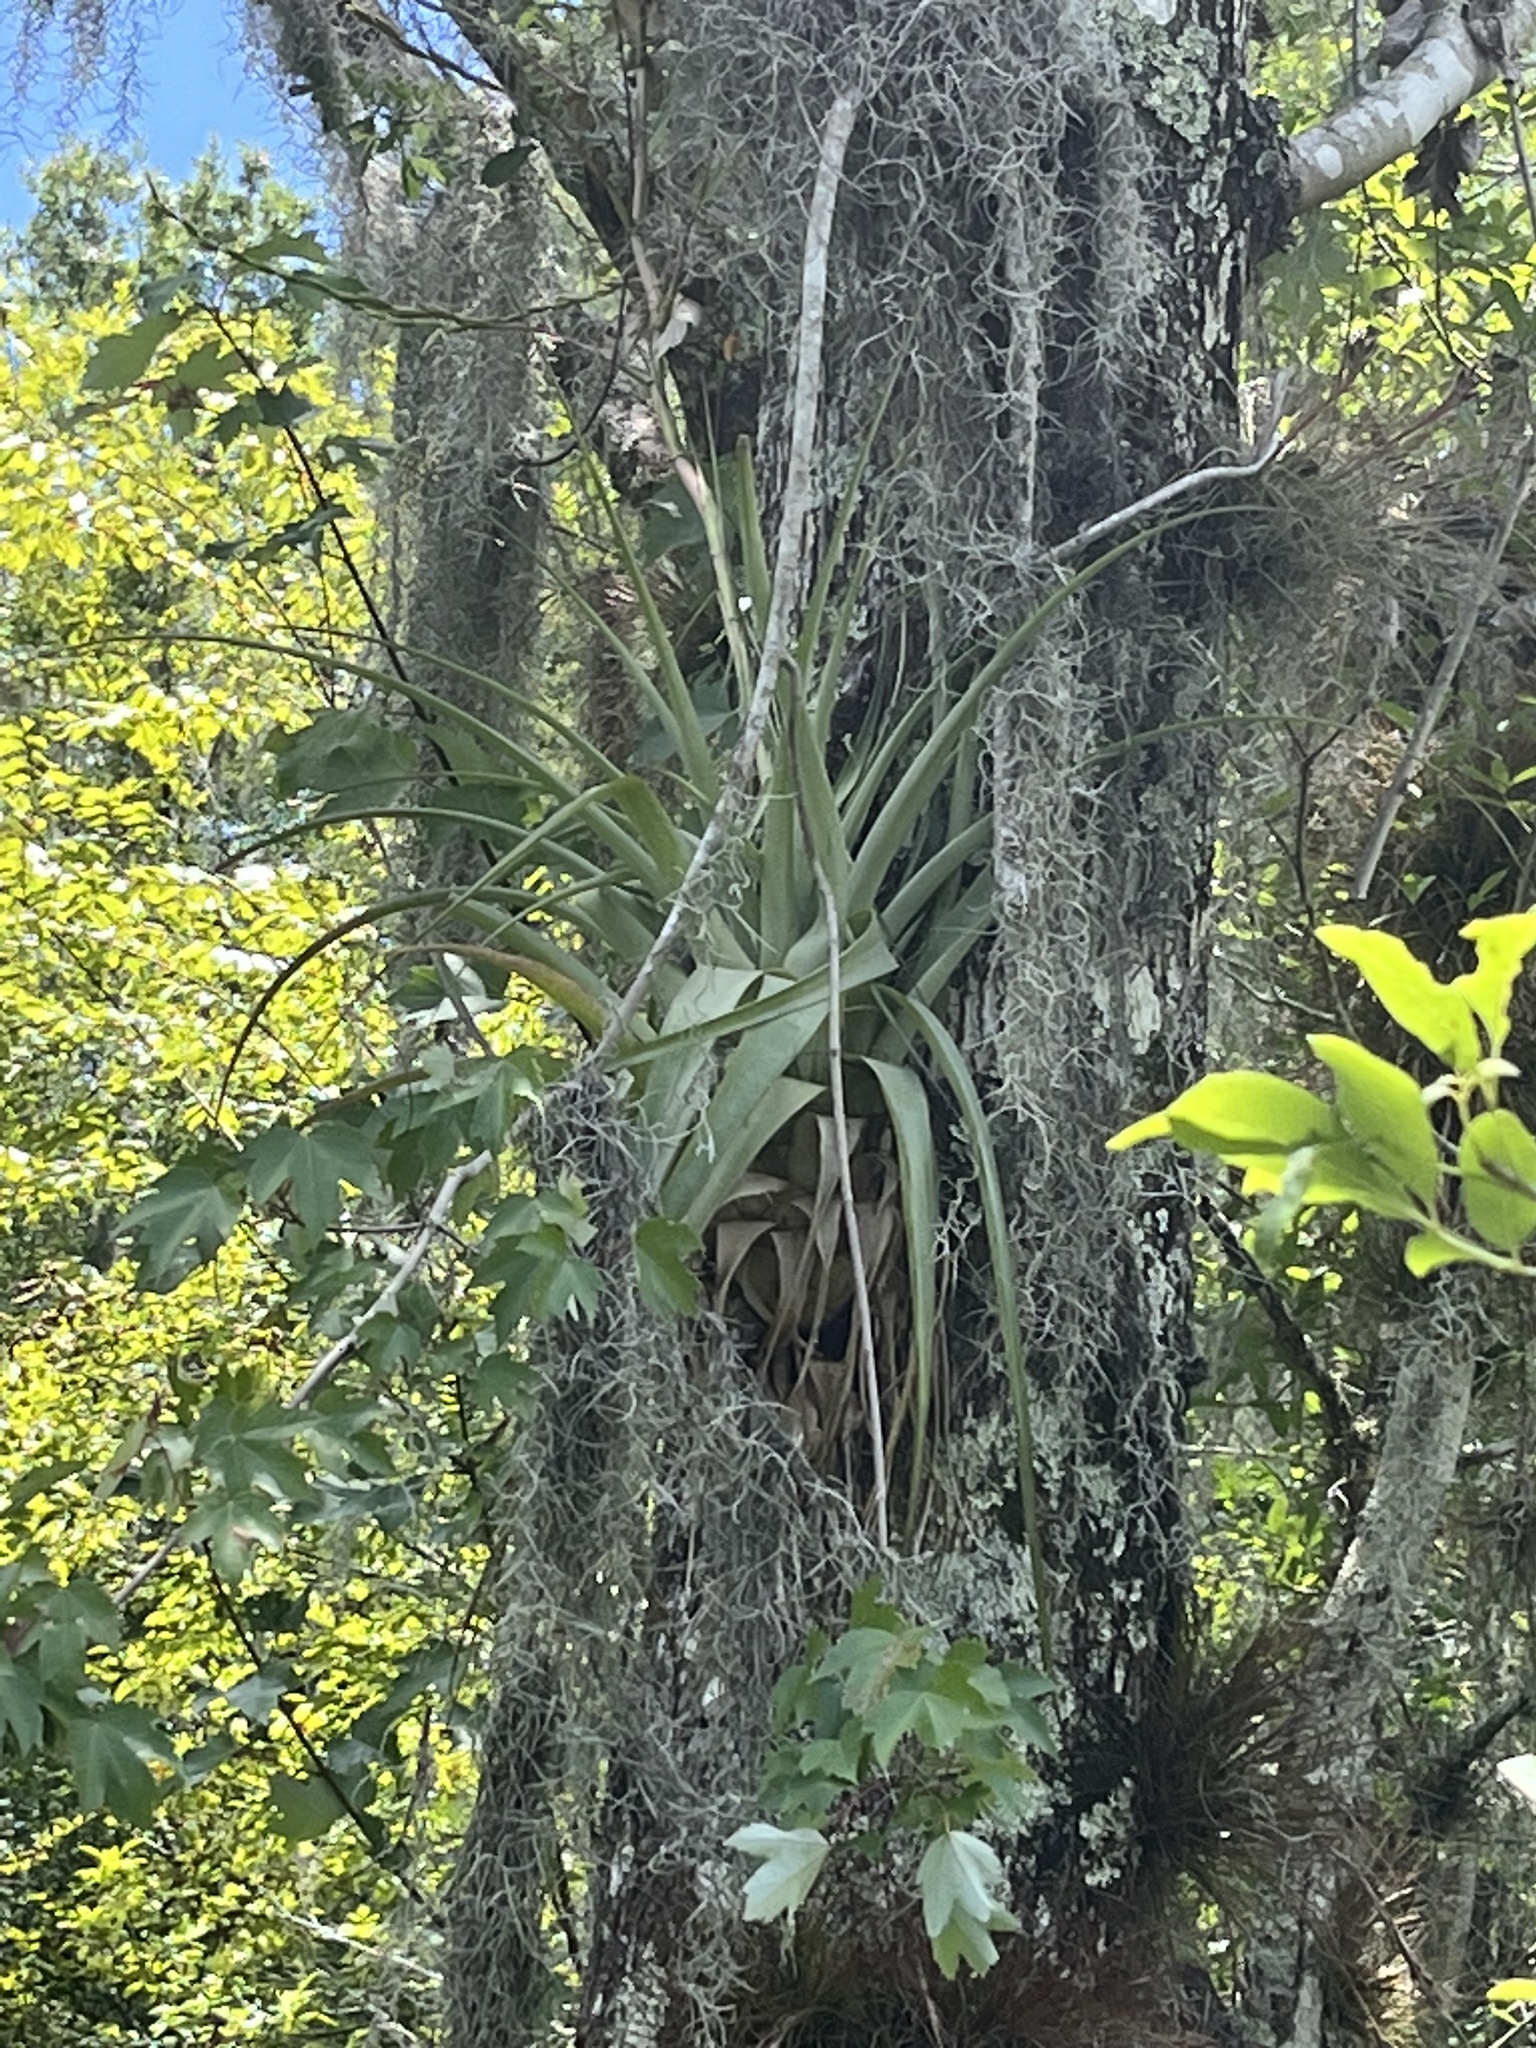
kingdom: Plantae
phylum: Tracheophyta
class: Liliopsida
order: Poales
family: Bromeliaceae
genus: Tillandsia
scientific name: Tillandsia utriculata
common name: Wild pine
